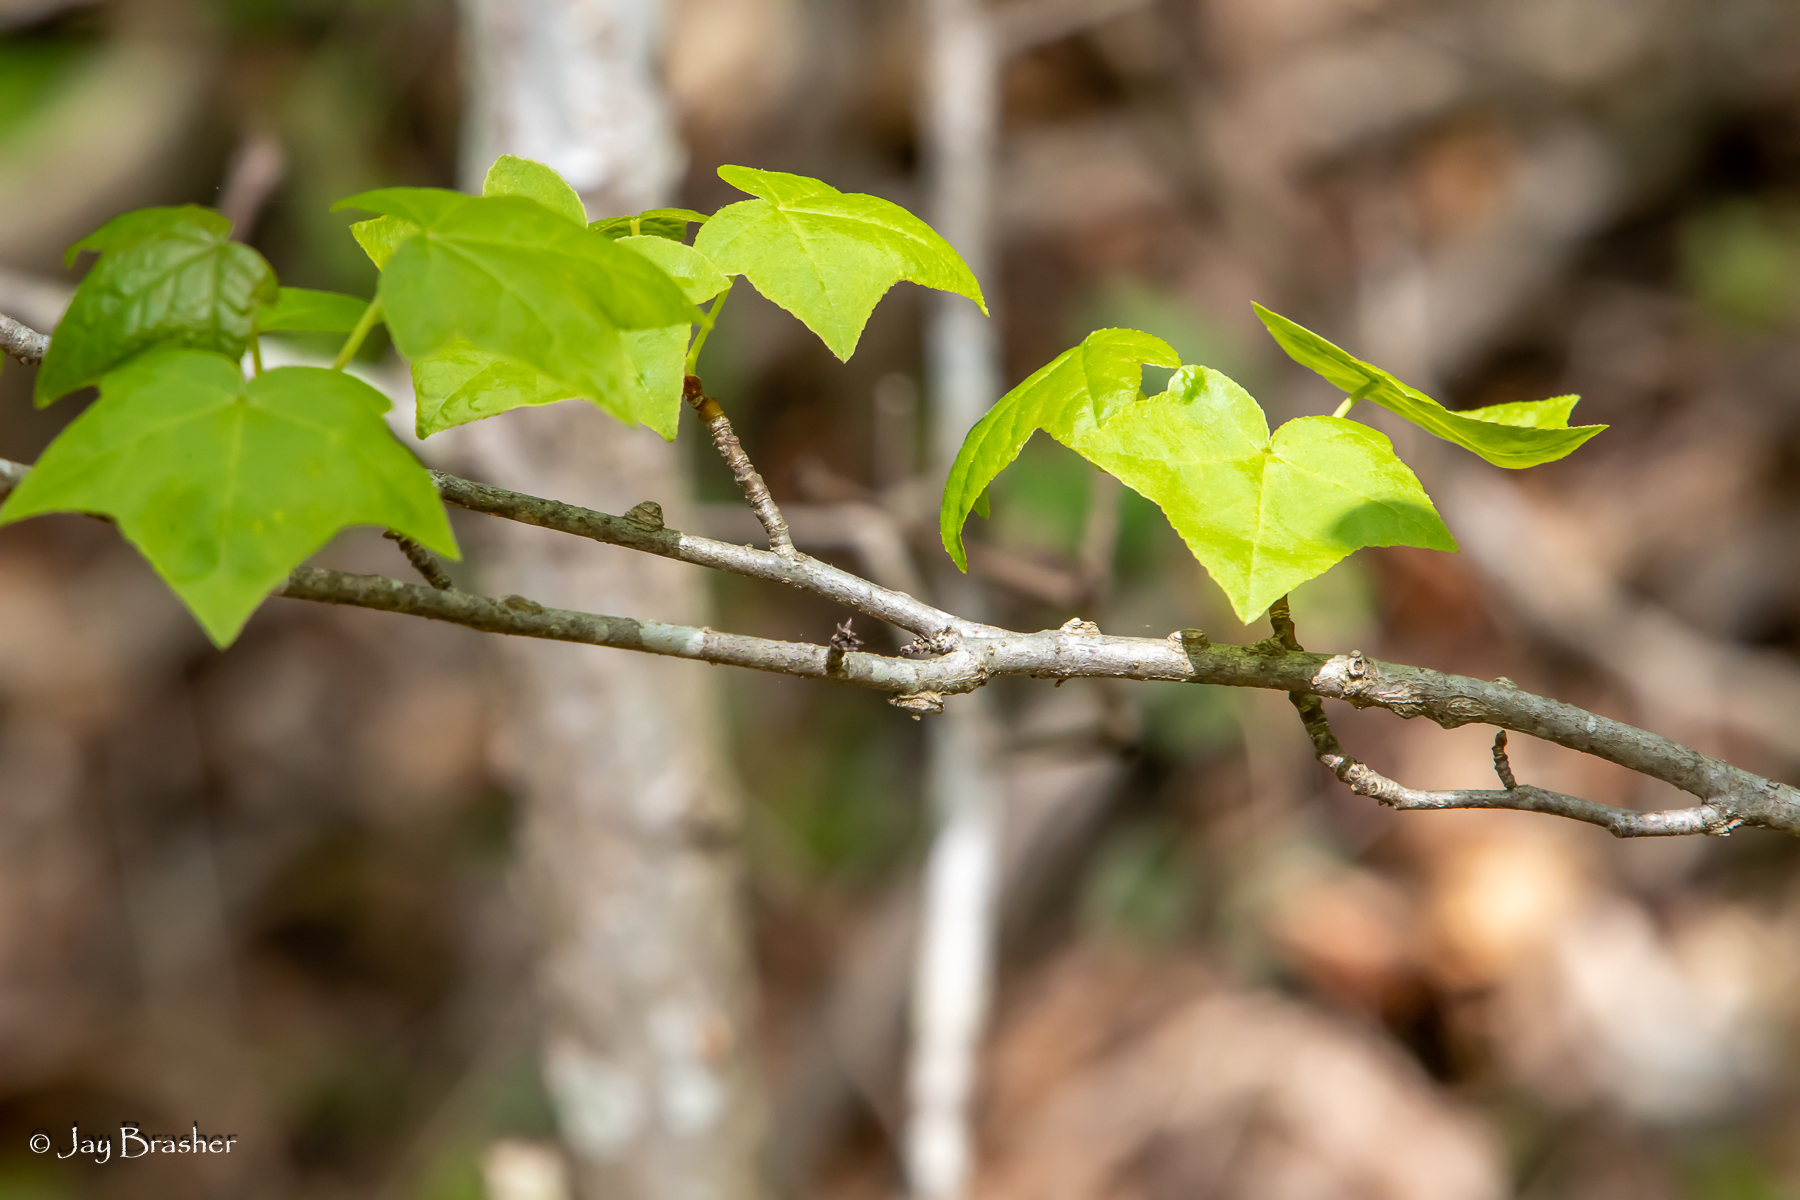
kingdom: Plantae
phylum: Tracheophyta
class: Magnoliopsida
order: Saxifragales
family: Altingiaceae
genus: Liquidambar
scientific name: Liquidambar styraciflua
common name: Sweet gum
